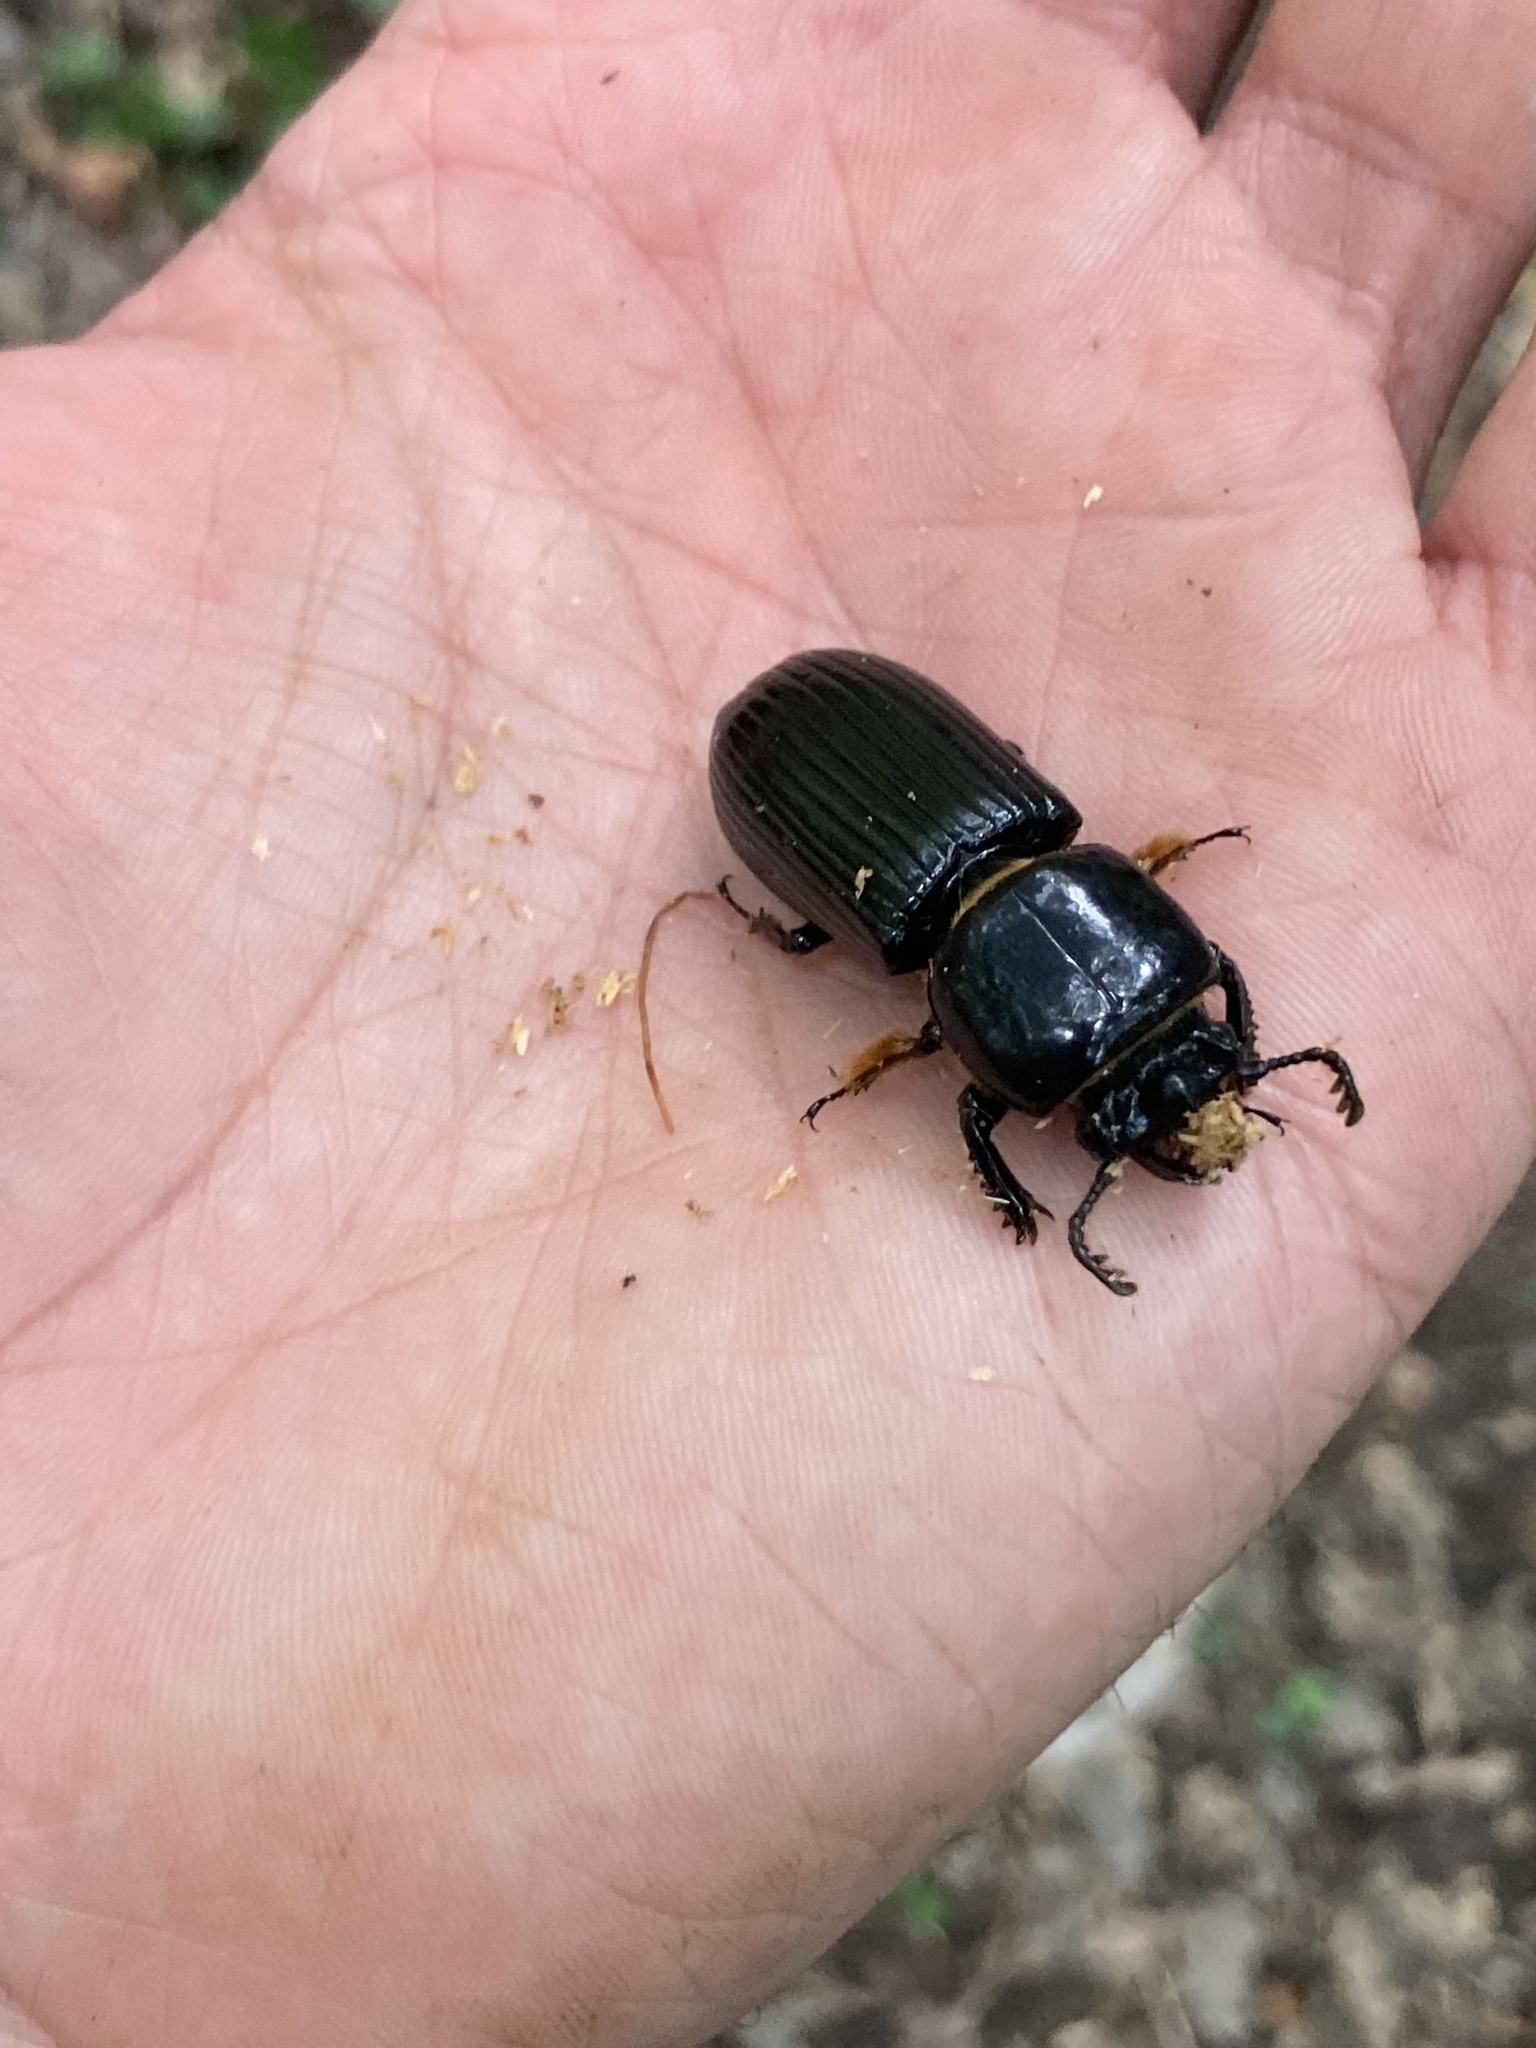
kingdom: Animalia
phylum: Arthropoda
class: Insecta
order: Coleoptera
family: Passalidae
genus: Odontotaenius
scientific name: Odontotaenius disjunctus
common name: Patent leather beetle
